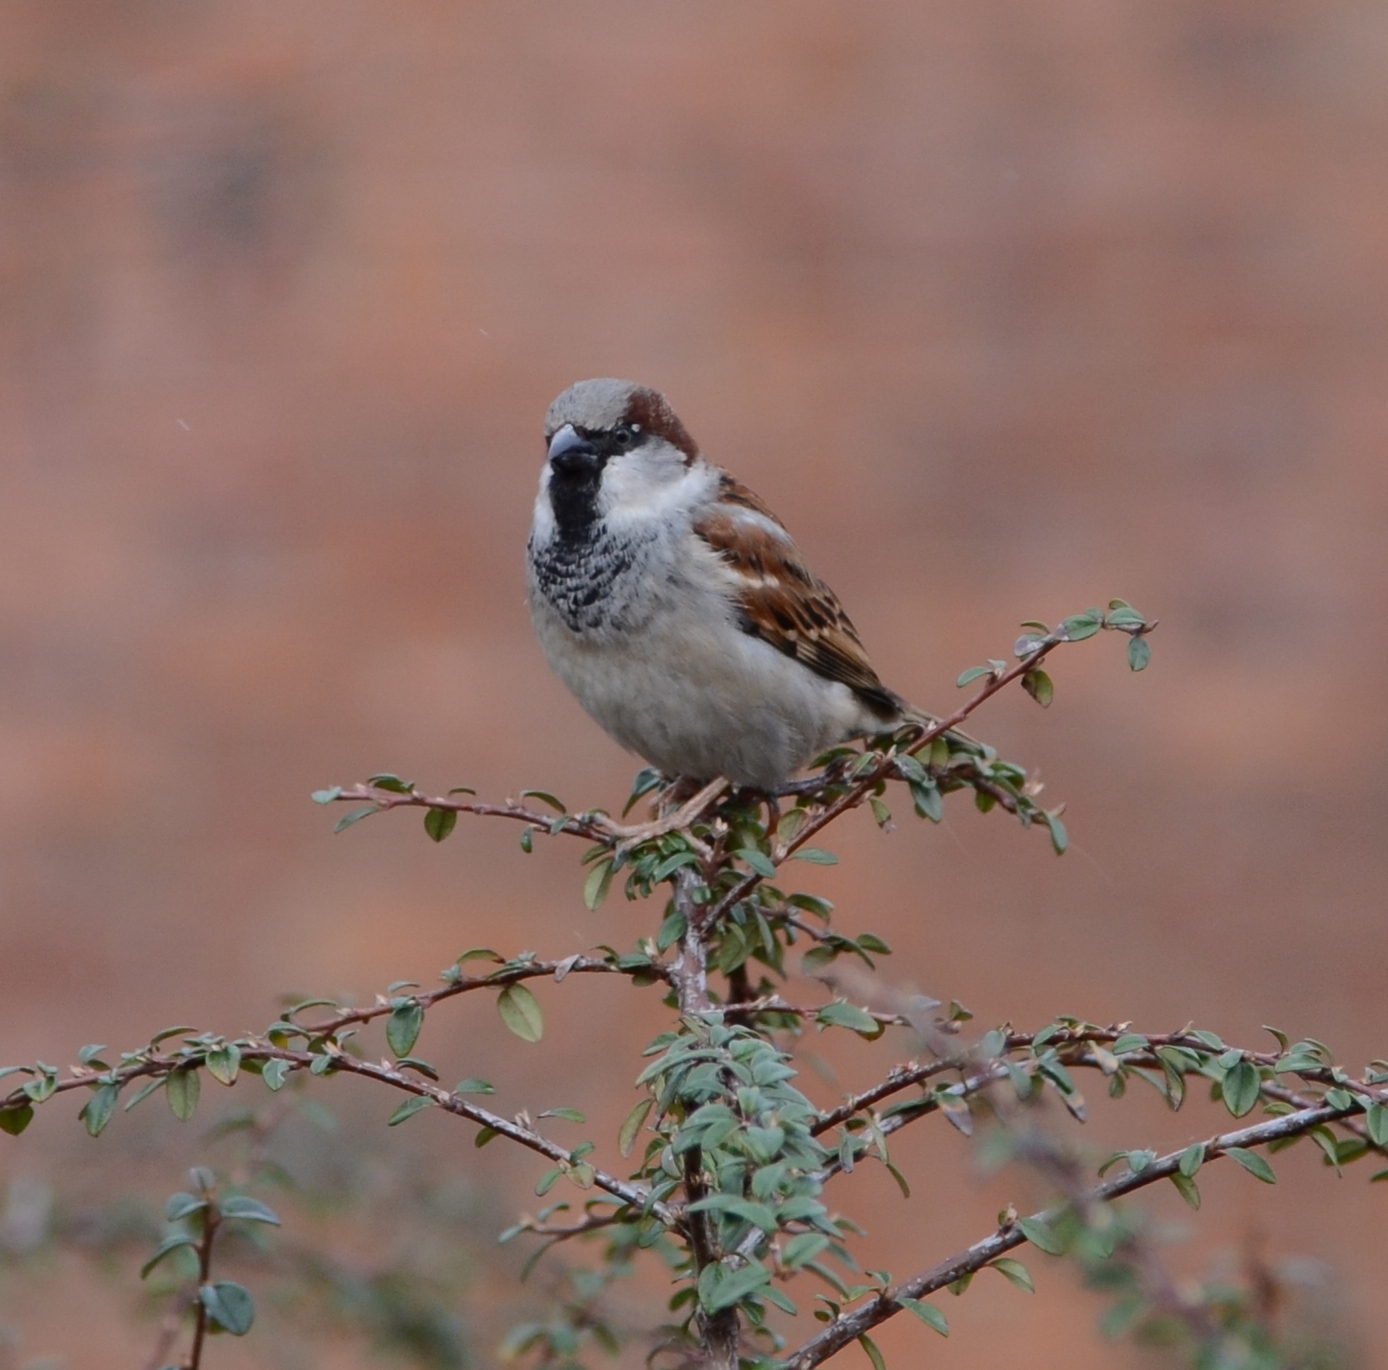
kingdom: Animalia
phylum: Chordata
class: Aves
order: Passeriformes
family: Passeridae
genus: Passer
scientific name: Passer domesticus
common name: House sparrow
